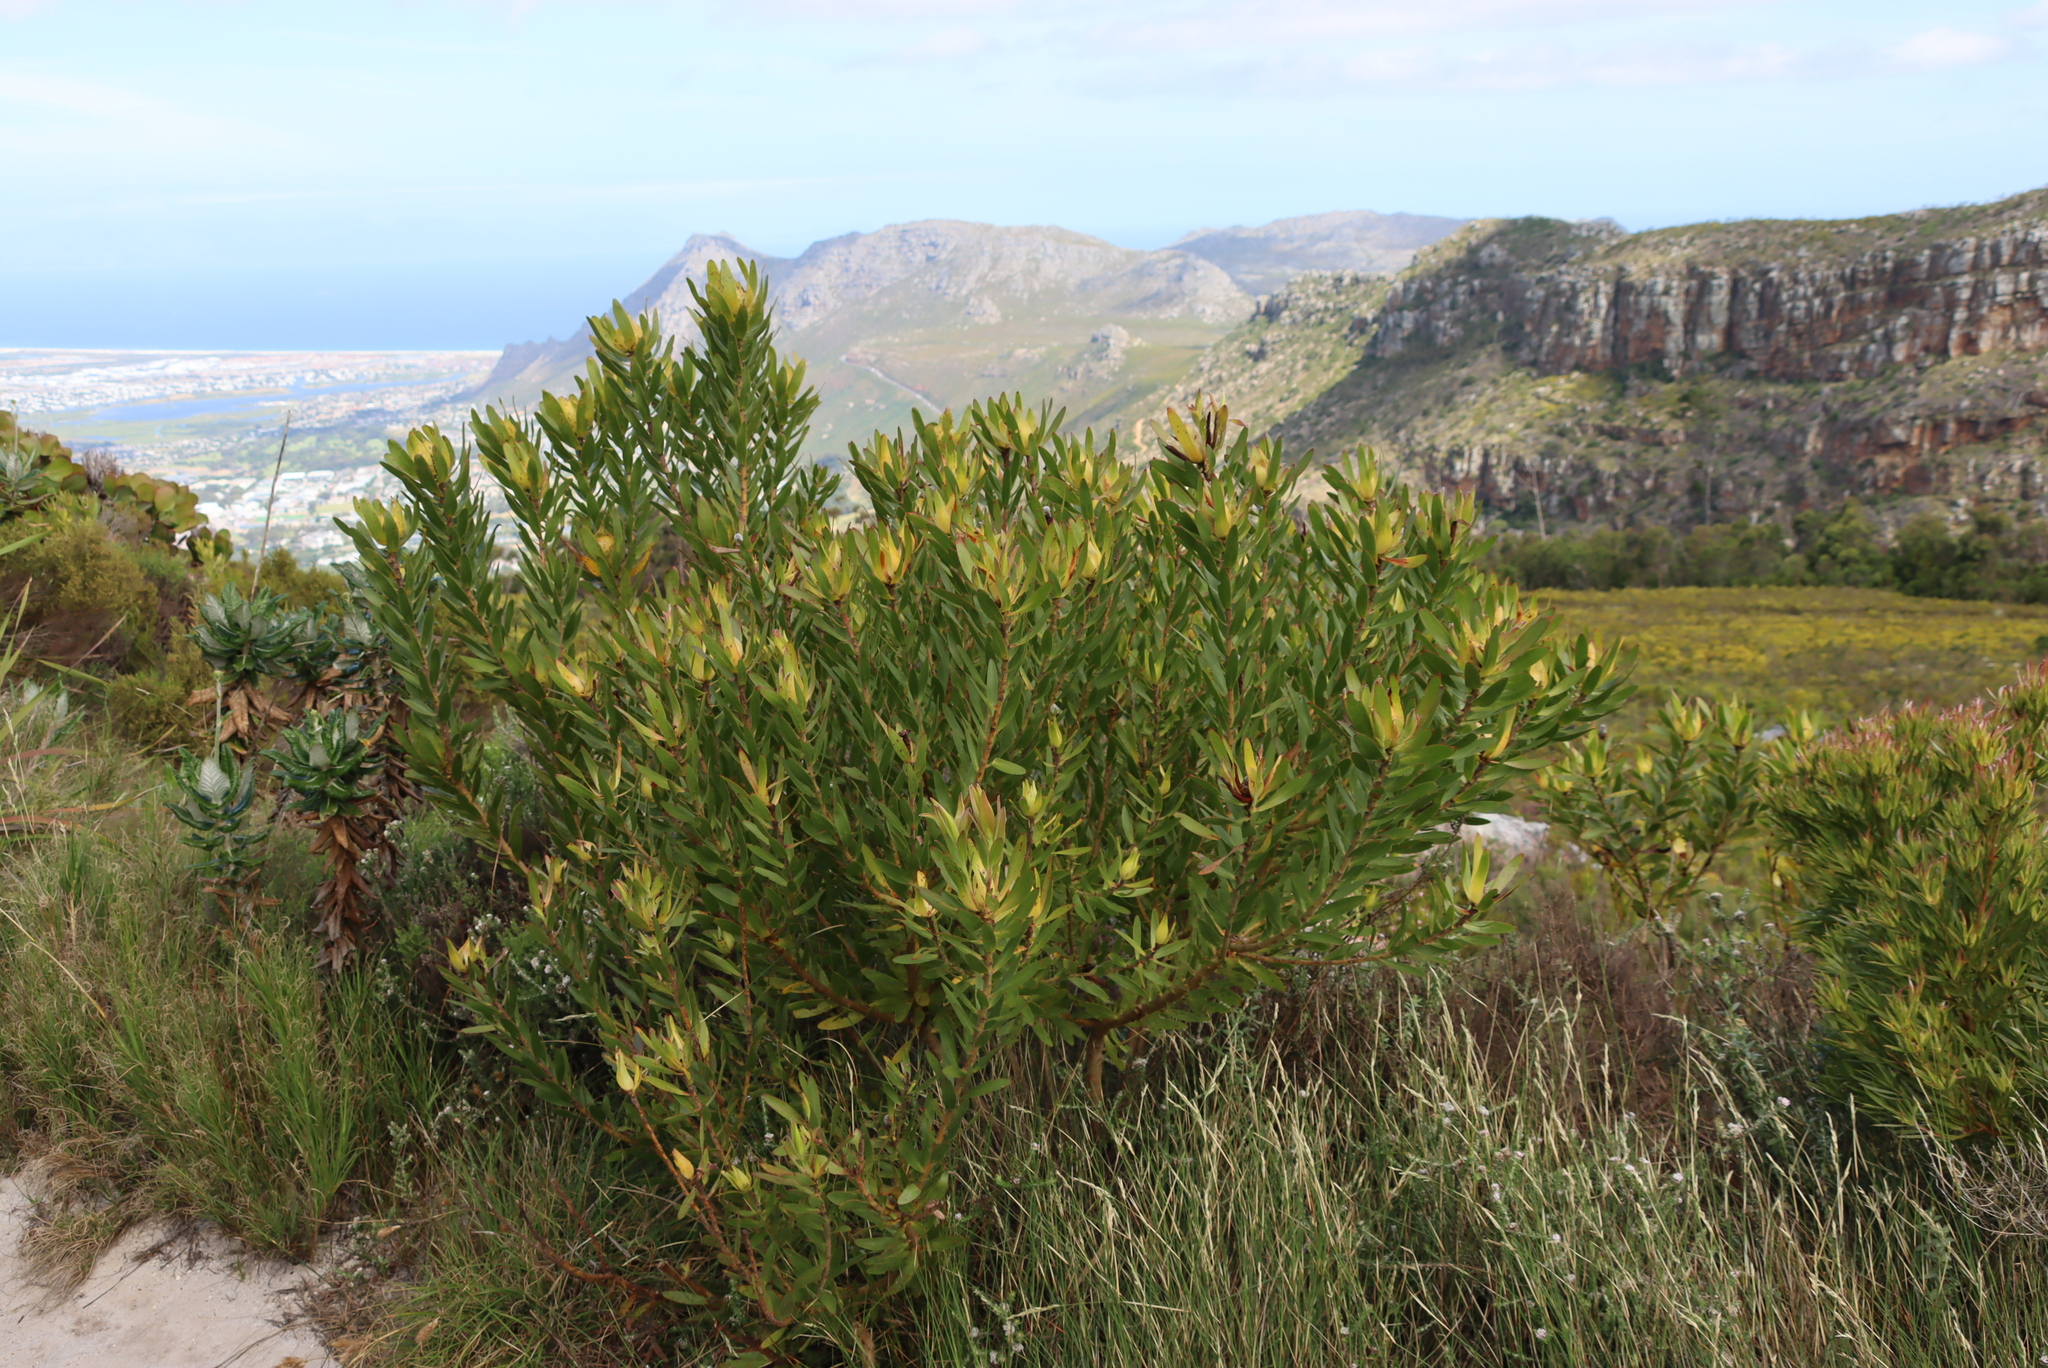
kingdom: Plantae
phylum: Tracheophyta
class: Magnoliopsida
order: Proteales
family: Proteaceae
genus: Leucadendron
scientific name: Leucadendron laureolum
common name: Golden sunshinebush
